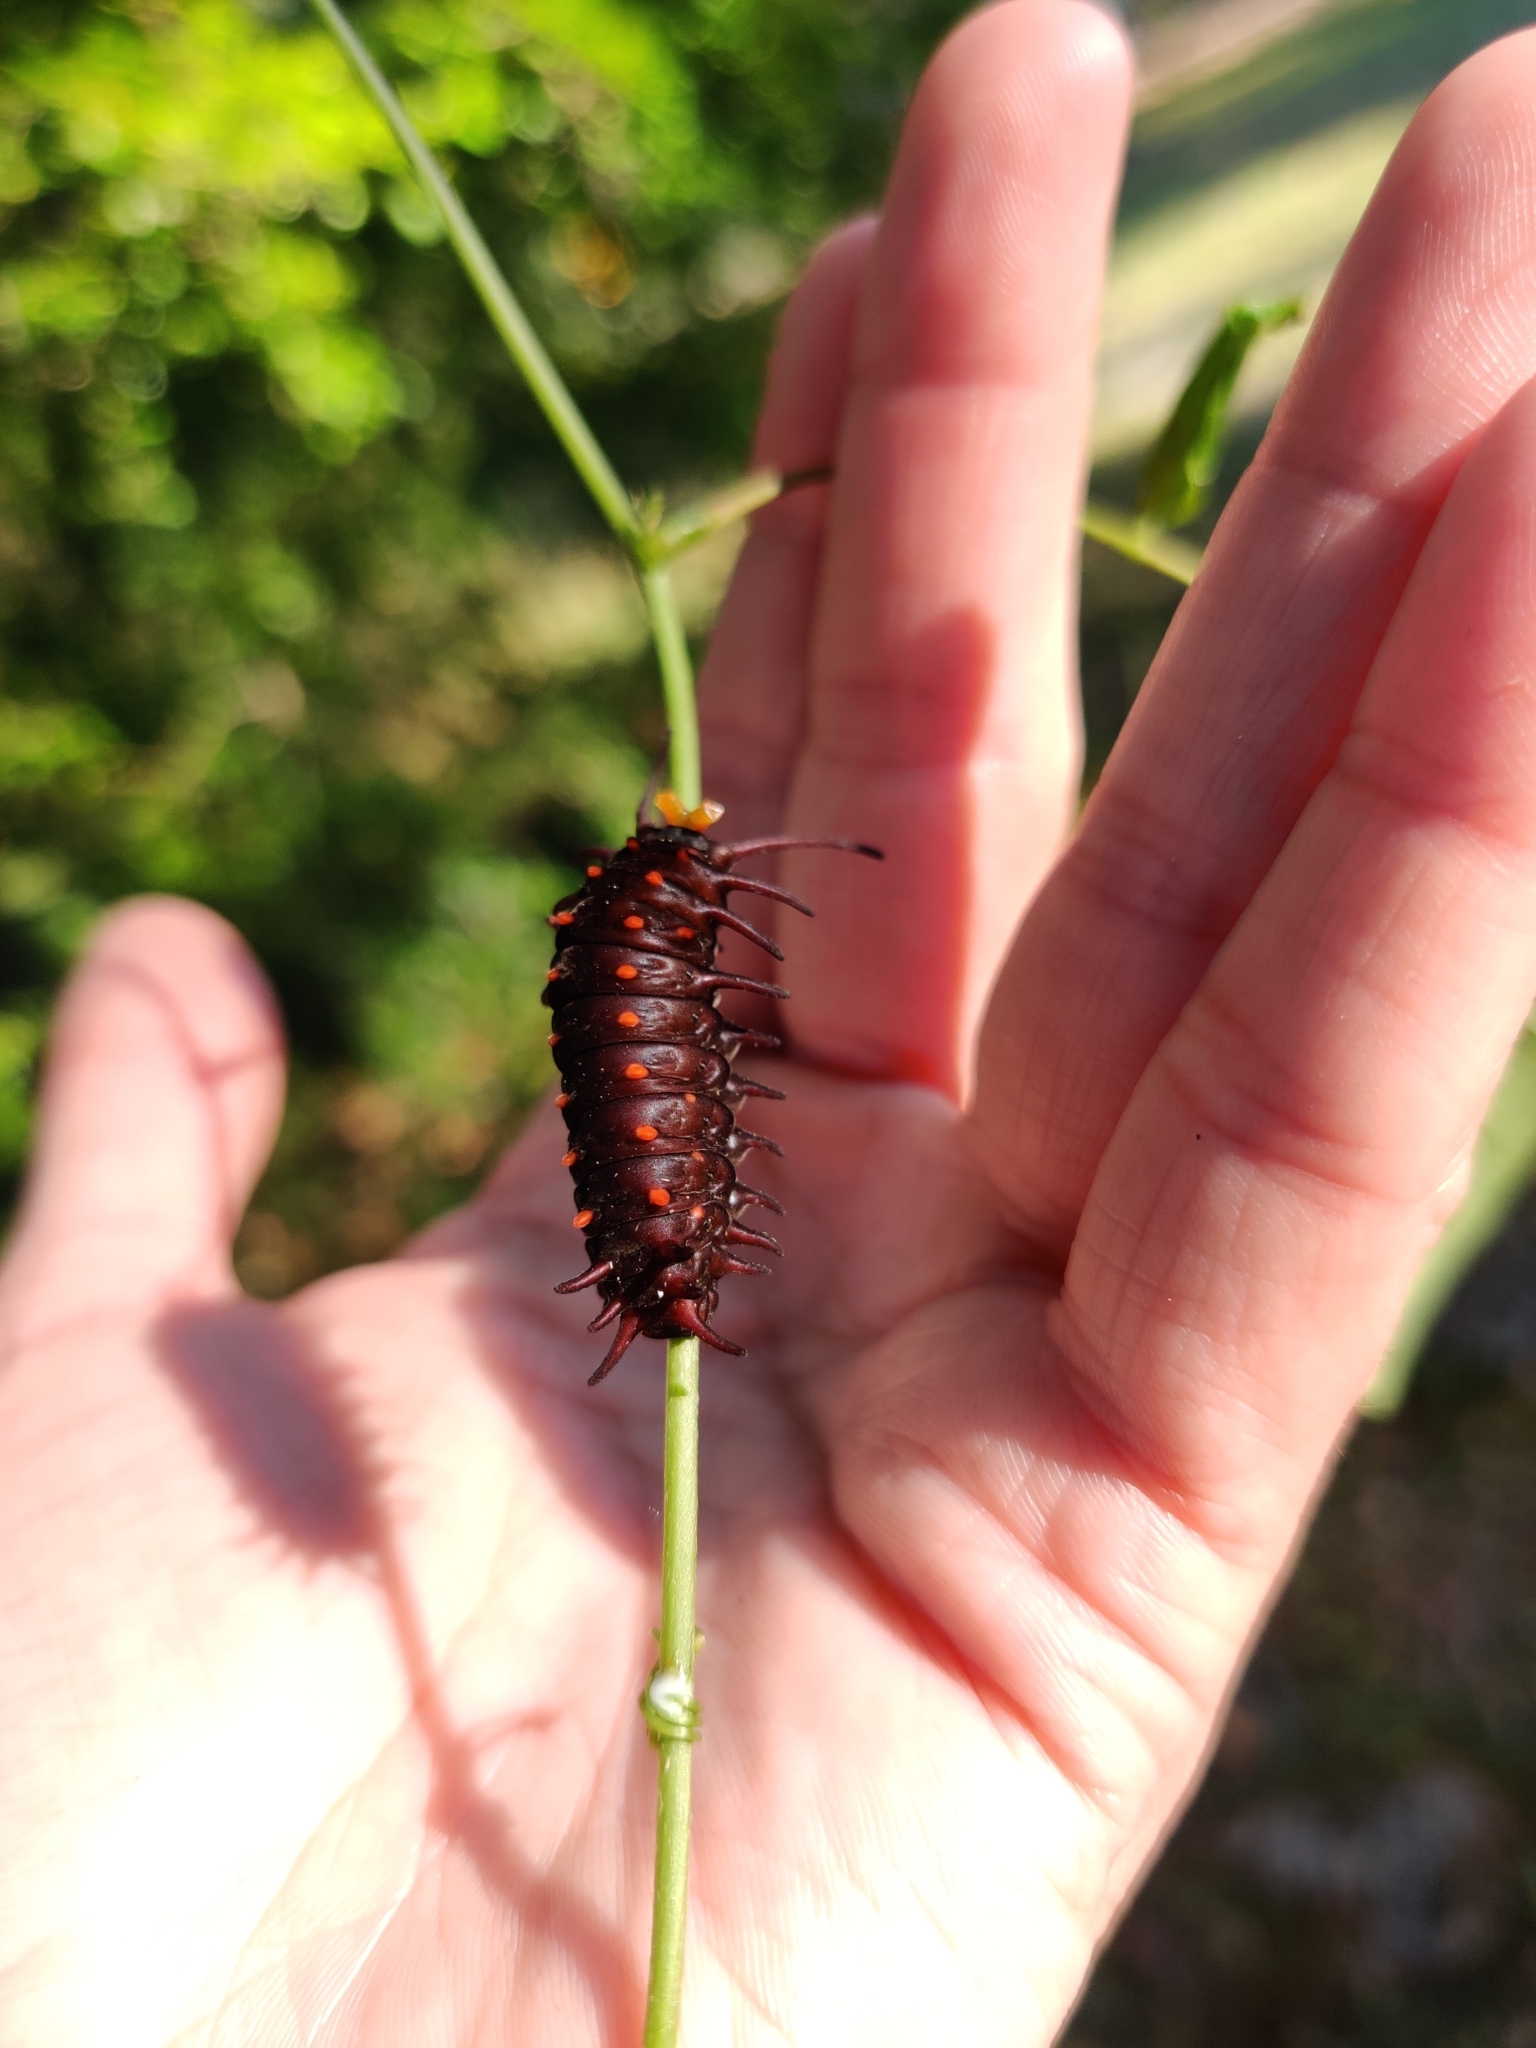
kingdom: Animalia
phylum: Arthropoda
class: Insecta
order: Lepidoptera
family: Papilionidae
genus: Battus
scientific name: Battus philenor
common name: Pipevine swallowtail
